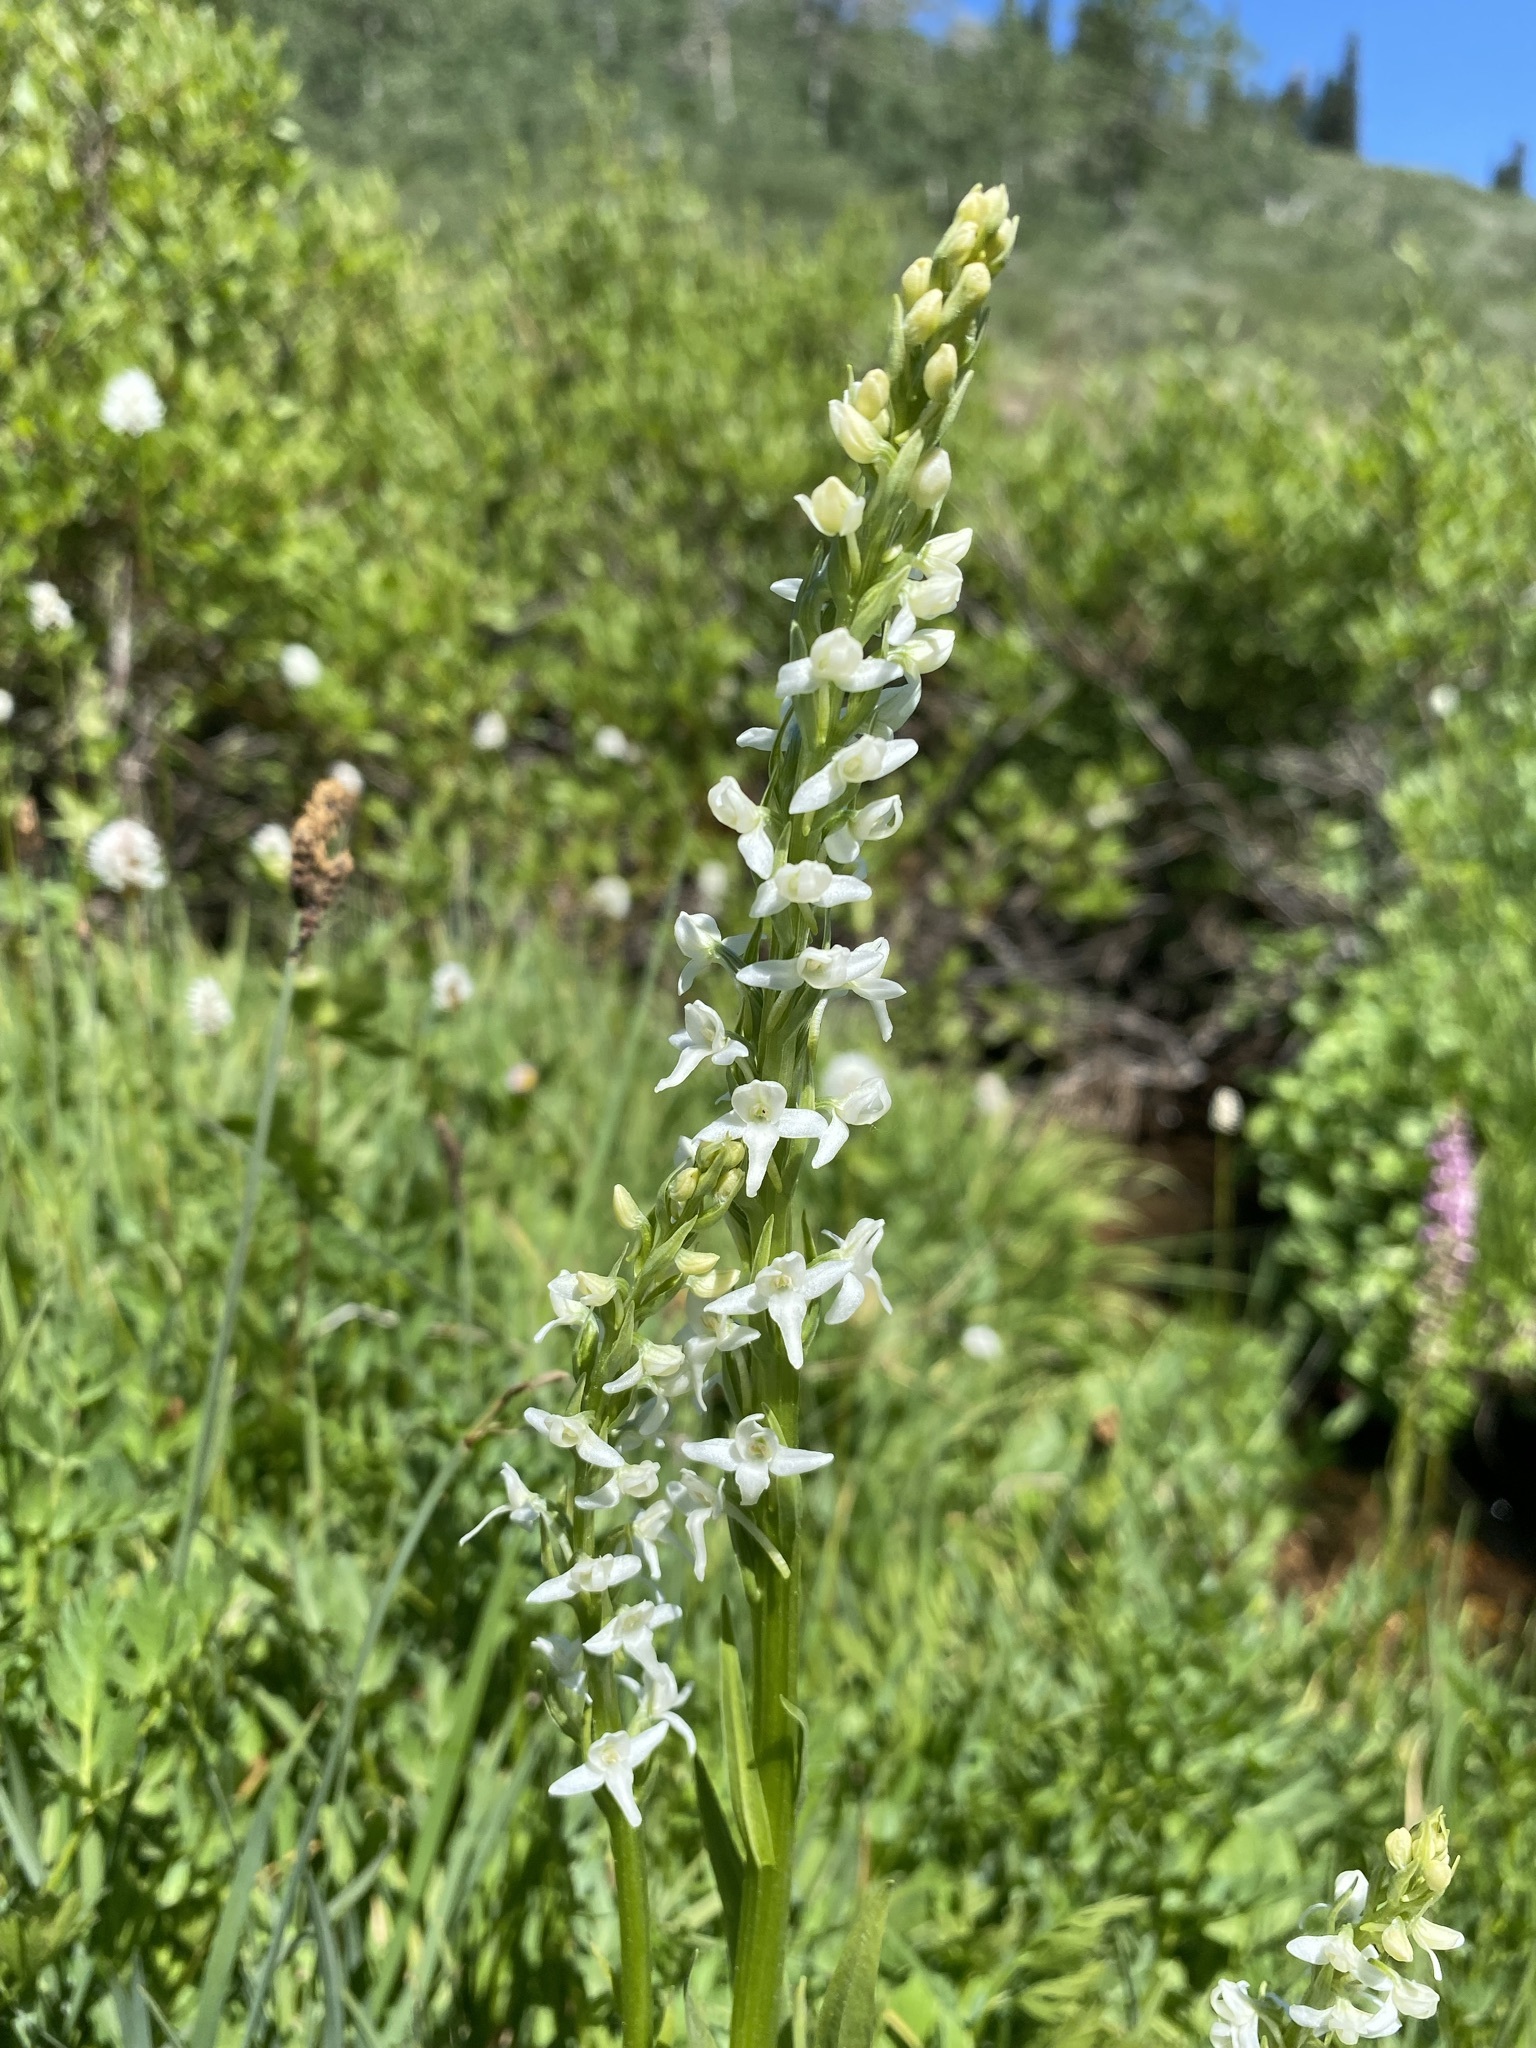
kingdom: Plantae
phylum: Tracheophyta
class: Liliopsida
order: Asparagales
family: Orchidaceae
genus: Platanthera
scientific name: Platanthera dilatata
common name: Bog candles
